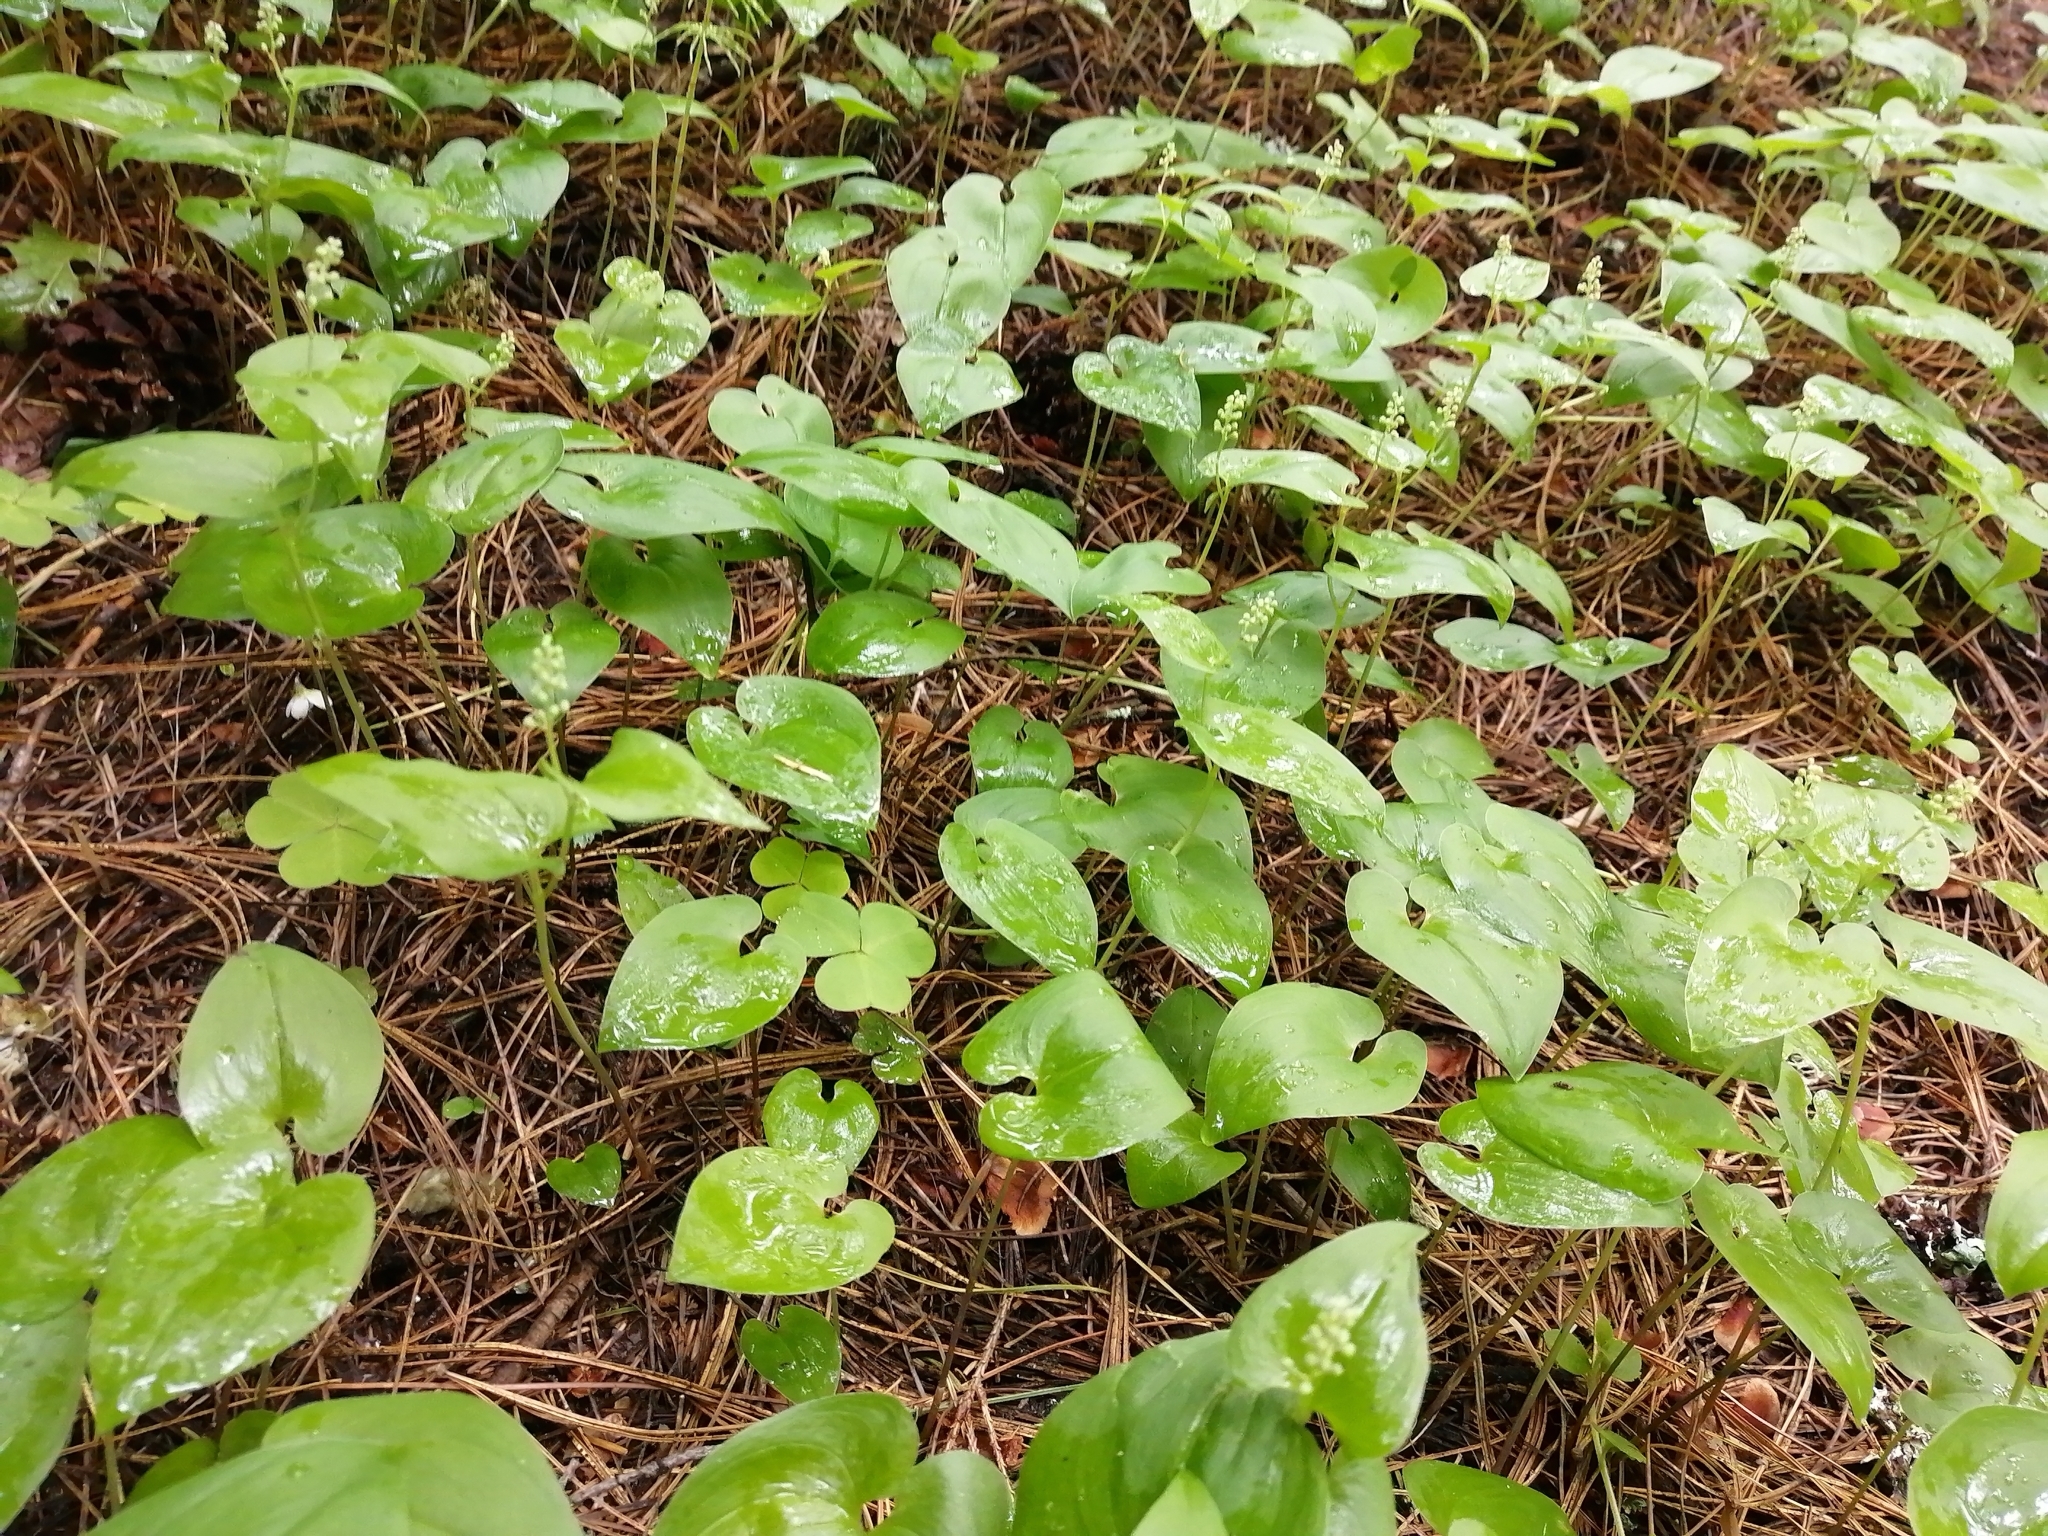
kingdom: Plantae
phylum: Tracheophyta
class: Liliopsida
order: Asparagales
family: Asparagaceae
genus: Maianthemum
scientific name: Maianthemum bifolium
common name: May lily
